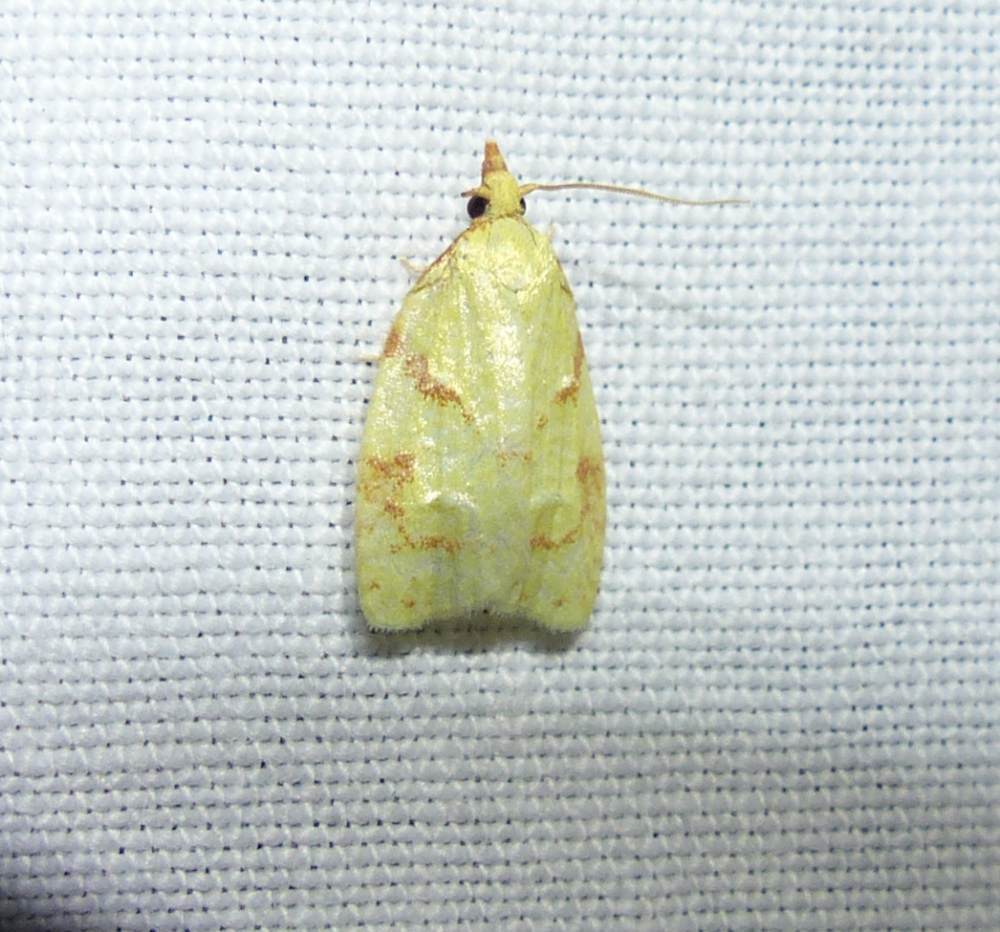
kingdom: Animalia
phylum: Arthropoda
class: Insecta
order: Lepidoptera
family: Tortricidae
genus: Cenopis
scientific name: Cenopis pettitana
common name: Maple-basswood leafroller moth
